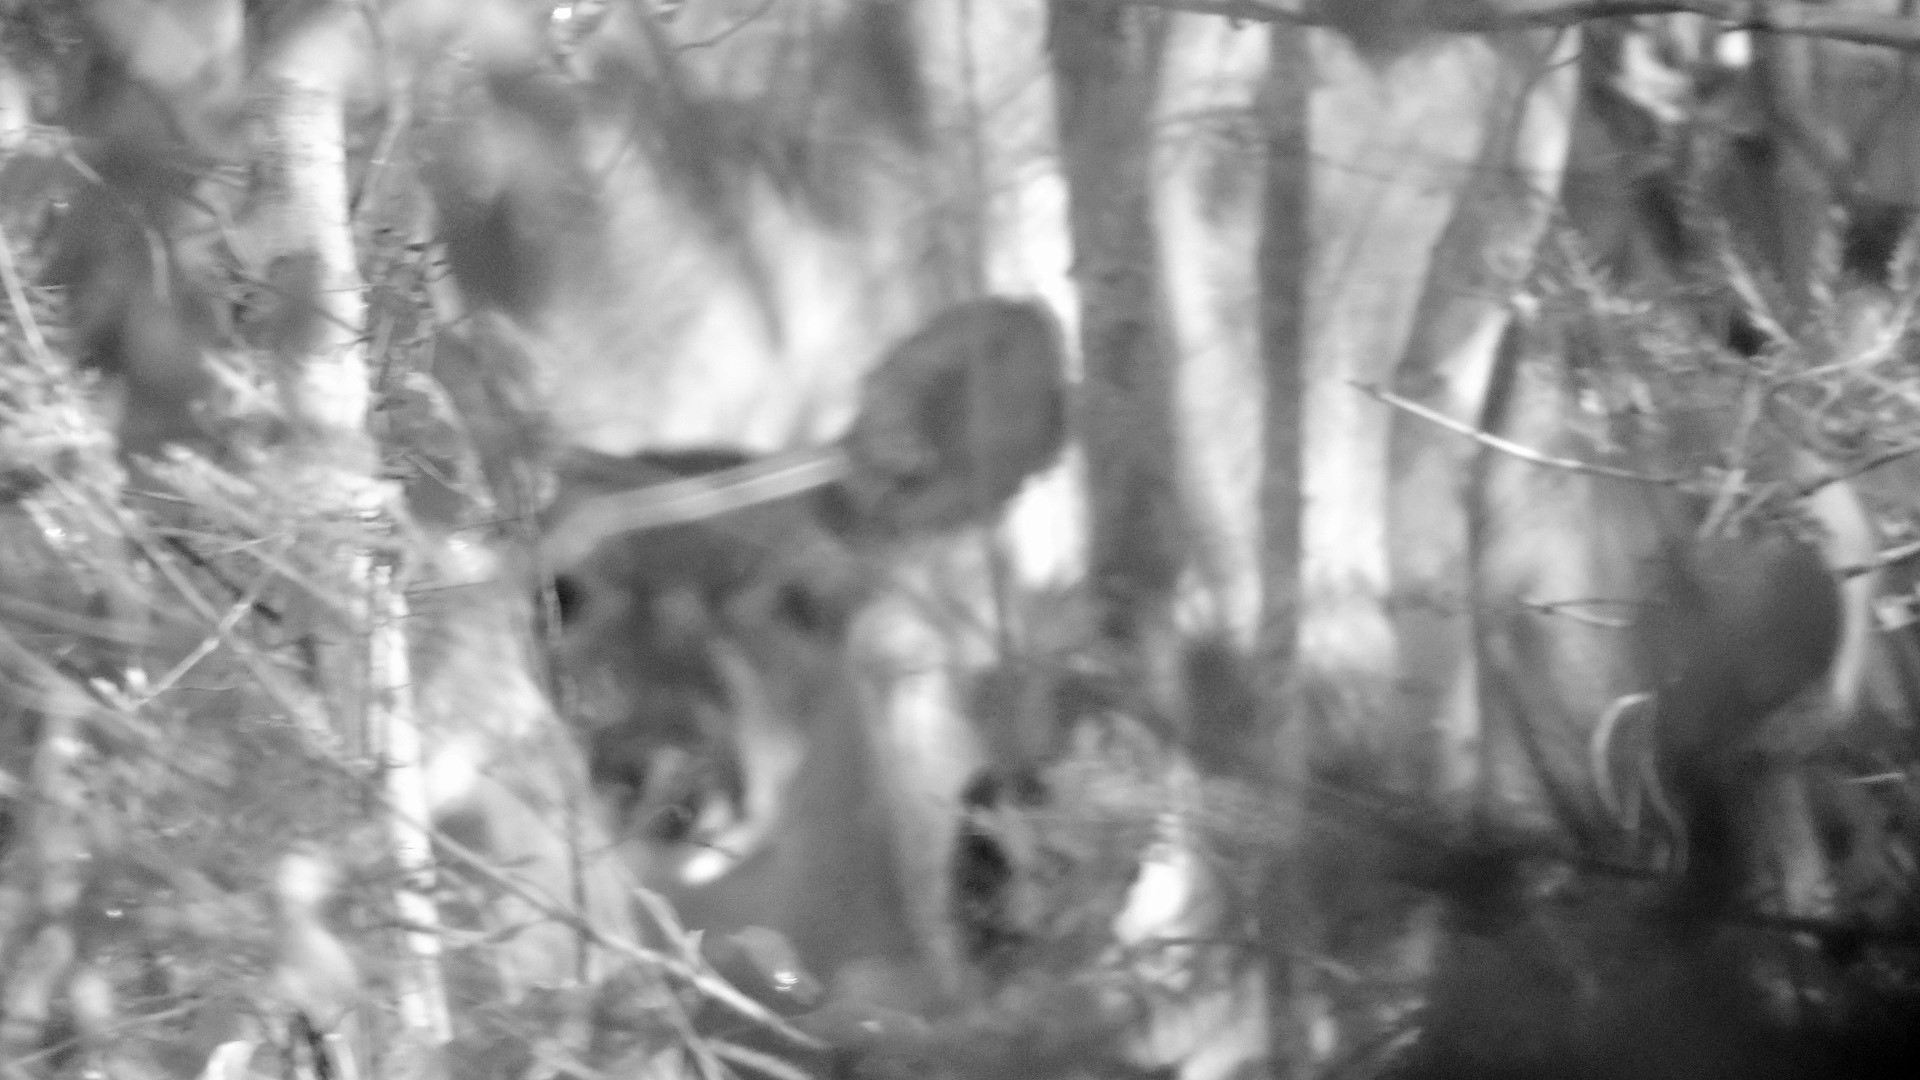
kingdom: Animalia
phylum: Chordata
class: Mammalia
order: Artiodactyla
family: Cervidae
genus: Odocoileus
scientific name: Odocoileus virginianus
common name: White-tailed deer
